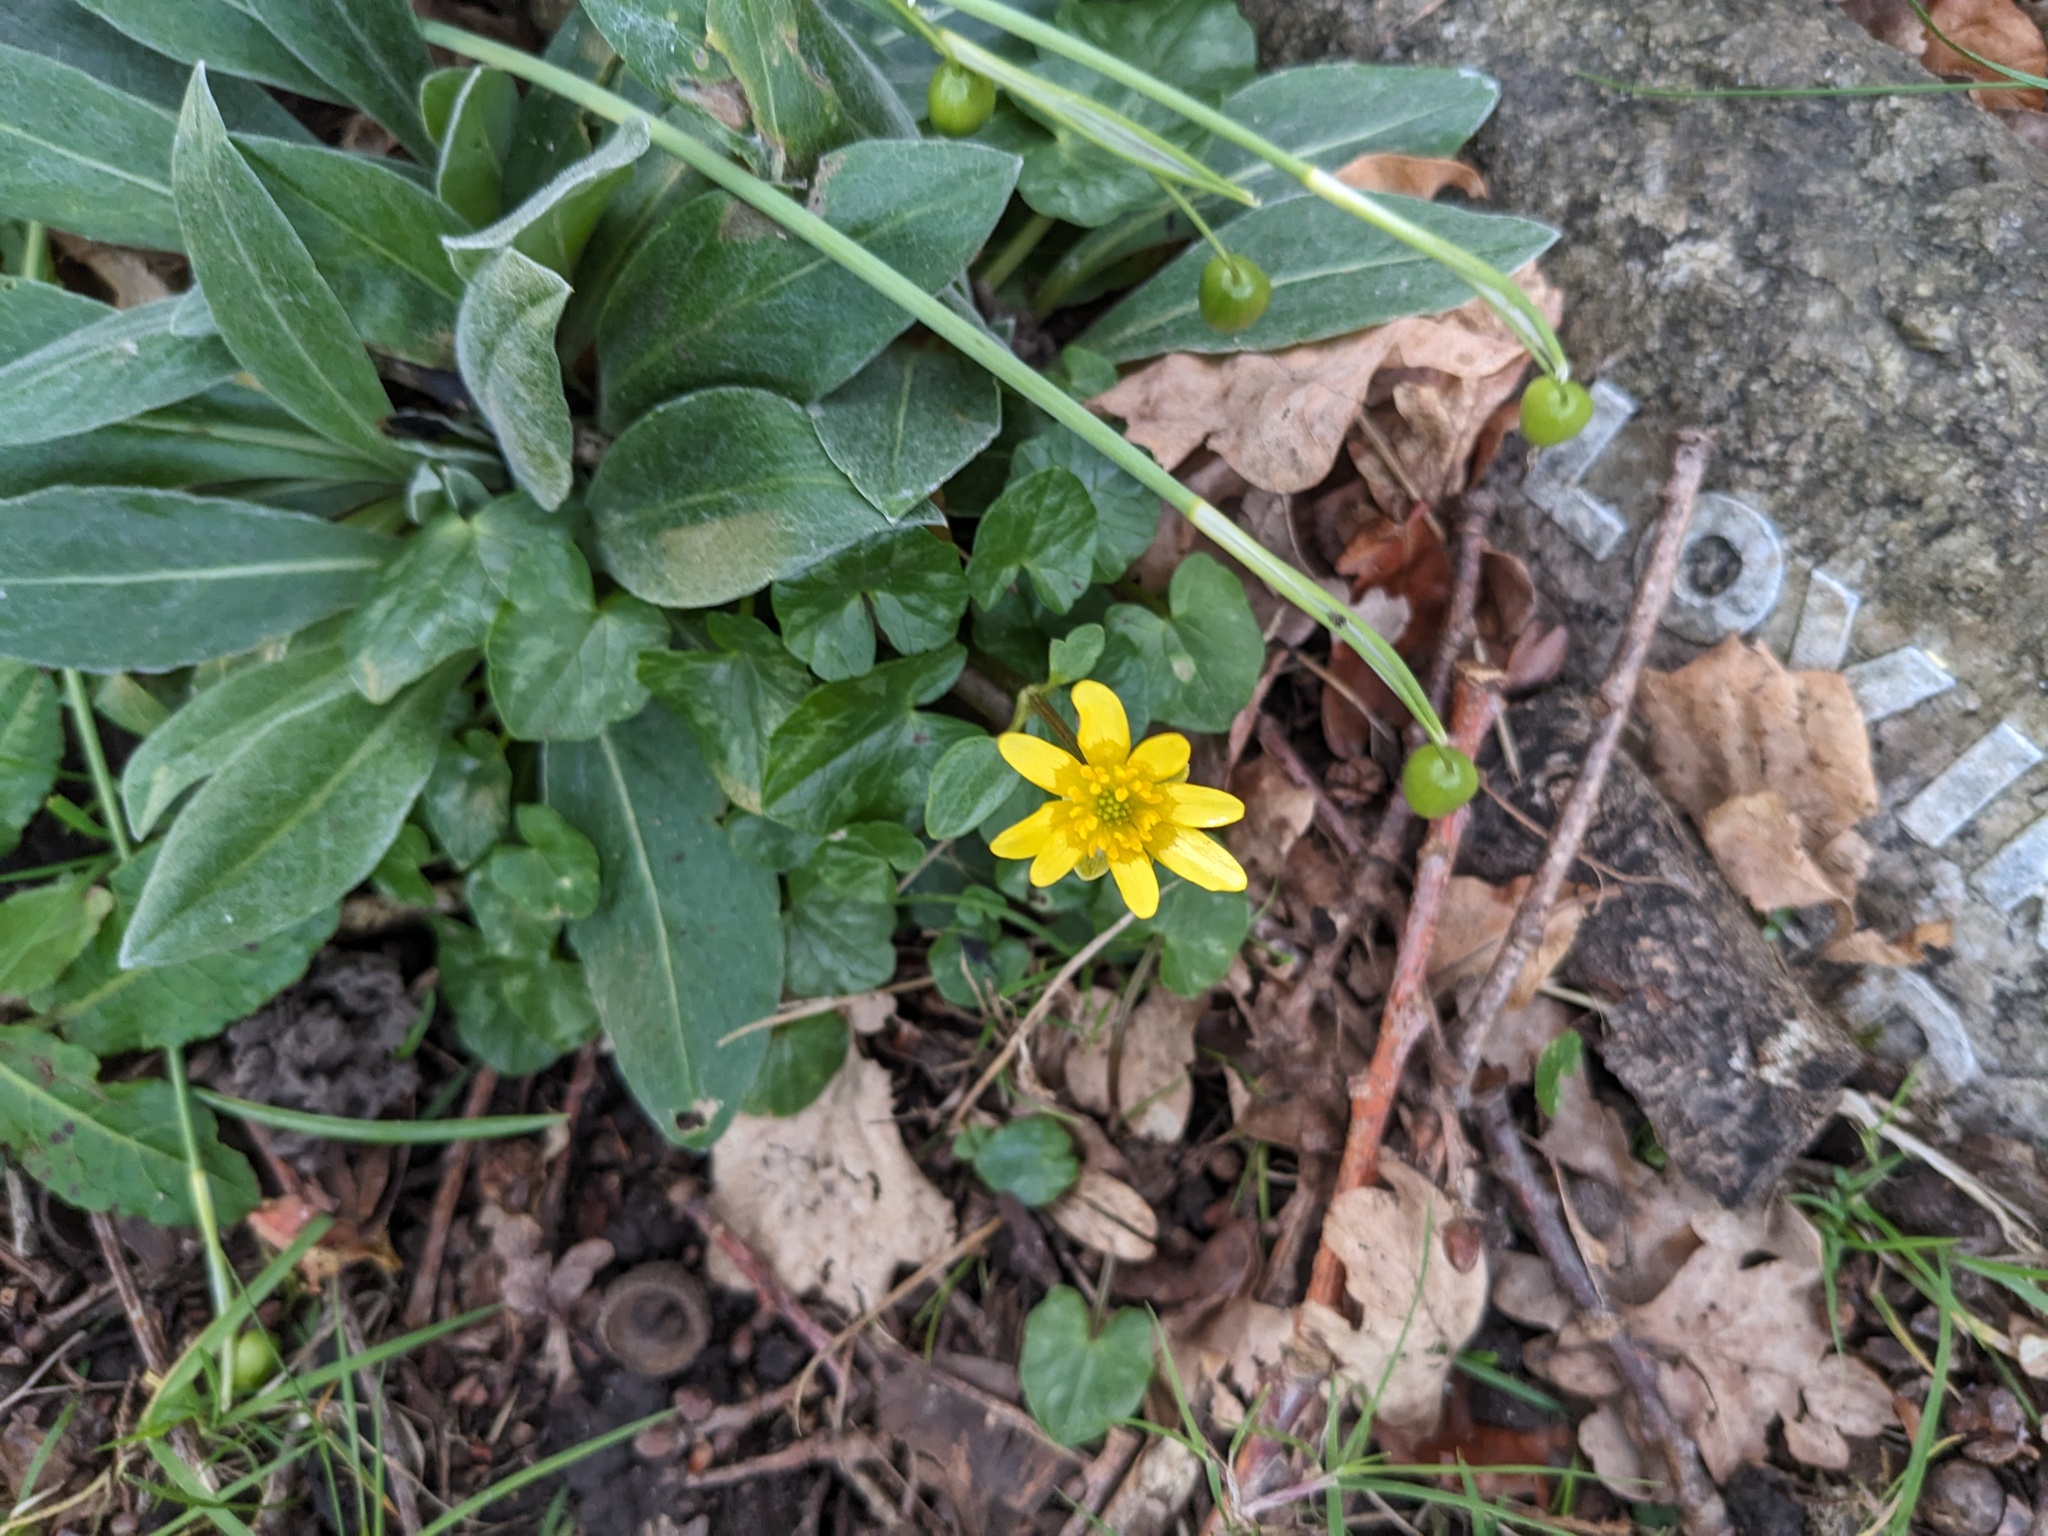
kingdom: Plantae
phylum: Tracheophyta
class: Magnoliopsida
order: Ranunculales
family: Ranunculaceae
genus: Ficaria
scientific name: Ficaria verna
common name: Lesser celandine
